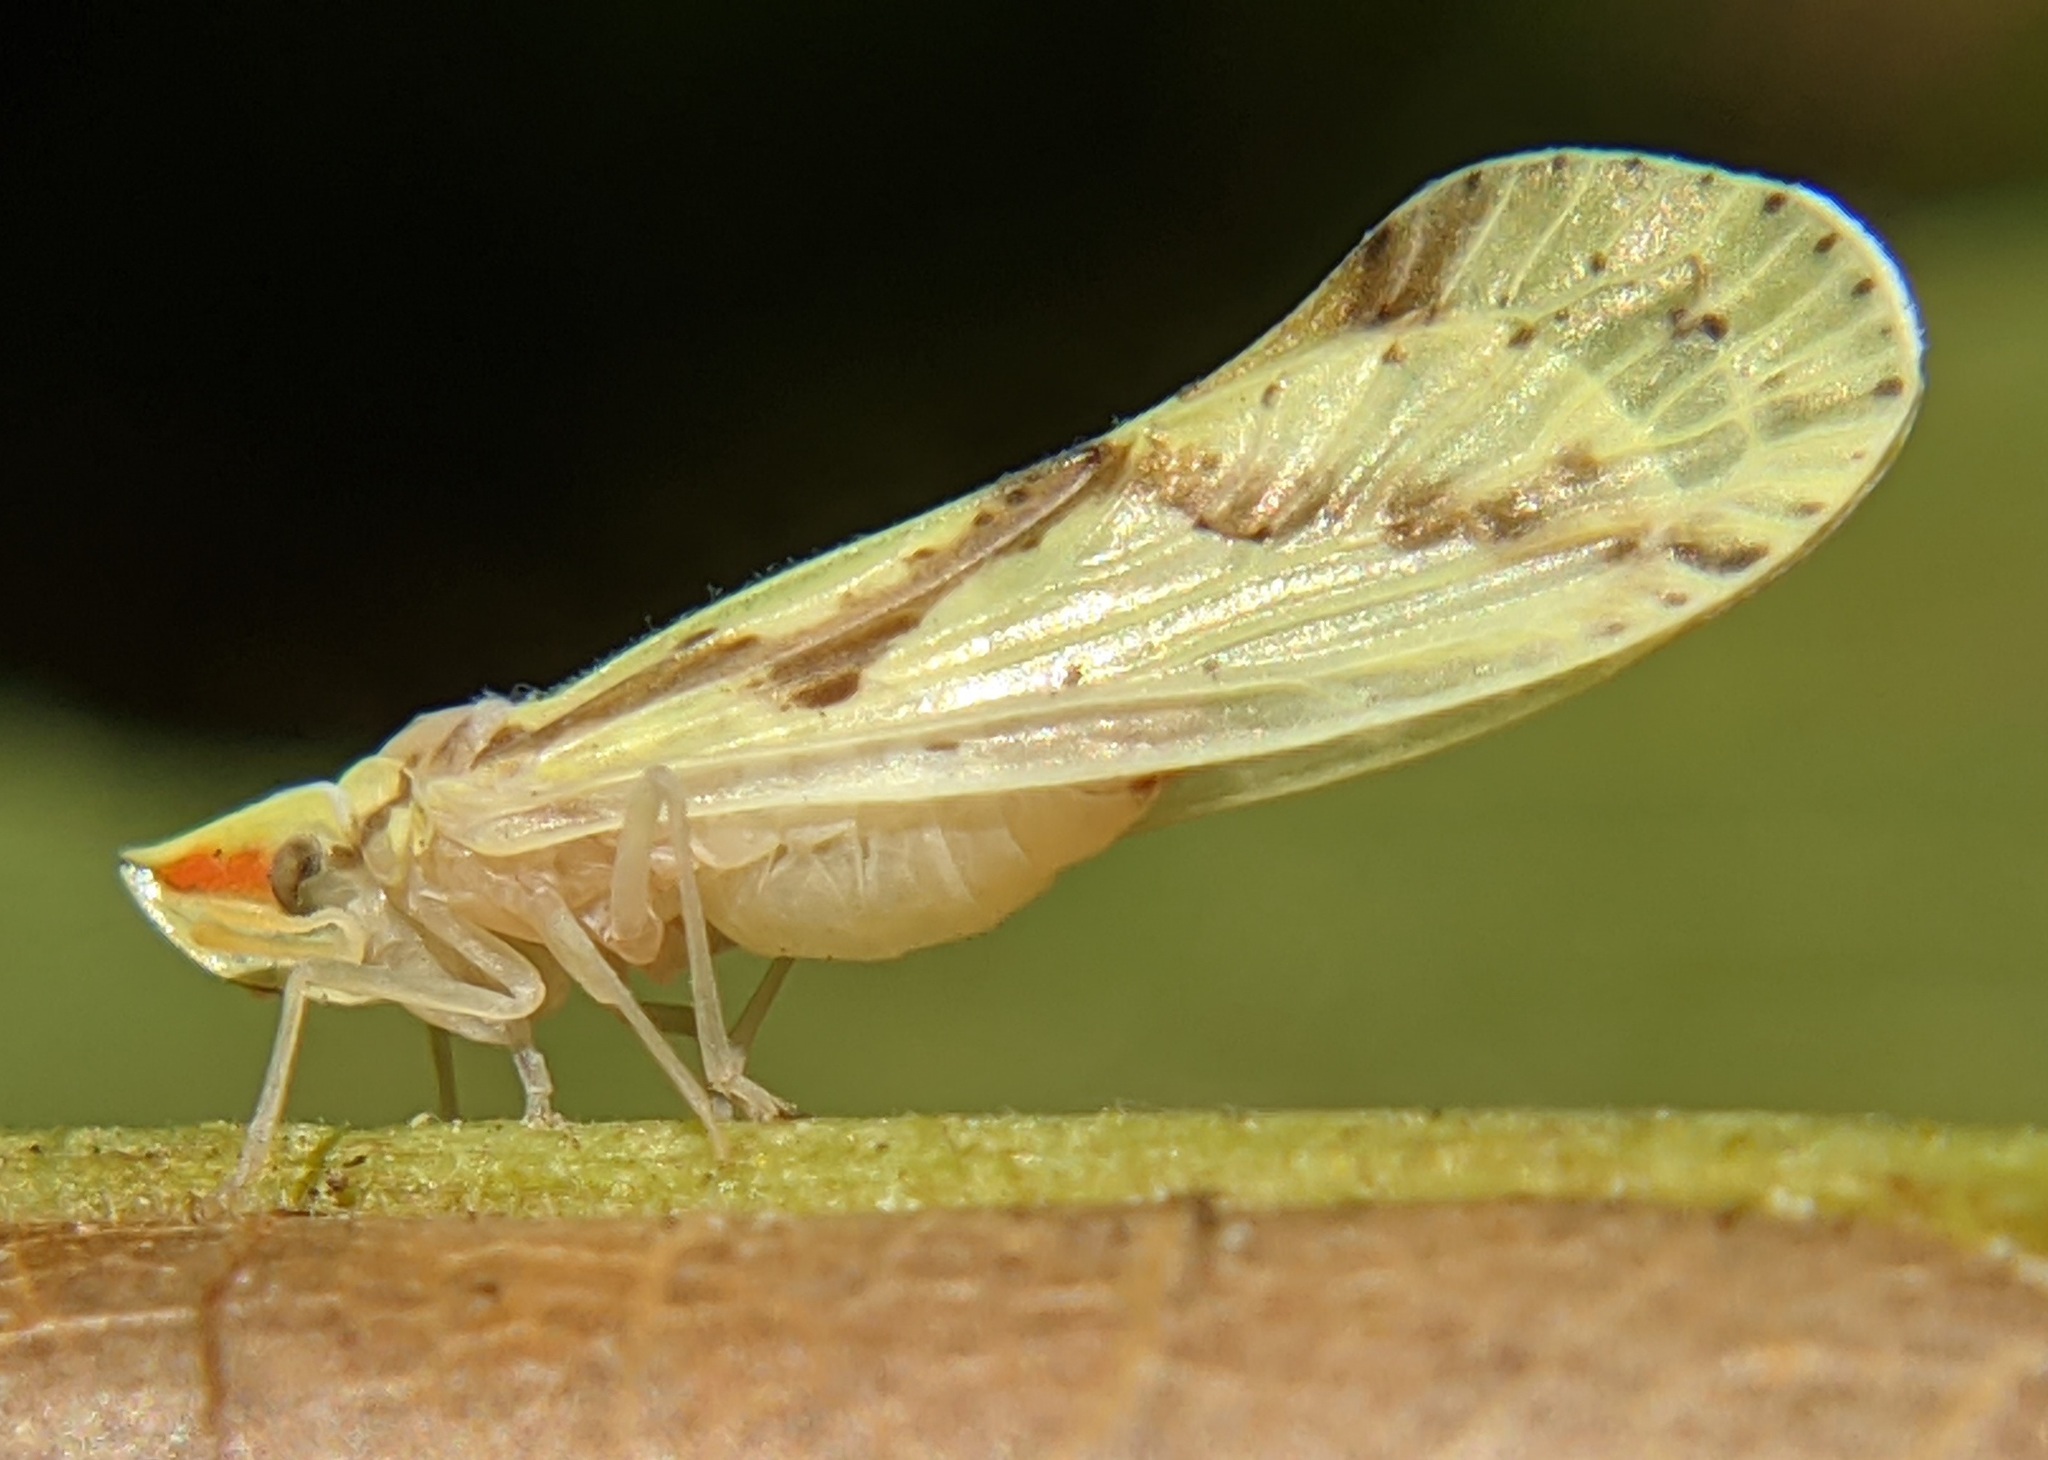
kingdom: Animalia
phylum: Arthropoda
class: Insecta
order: Hemiptera
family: Derbidae
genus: Otiocerus
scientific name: Otiocerus wolfii
